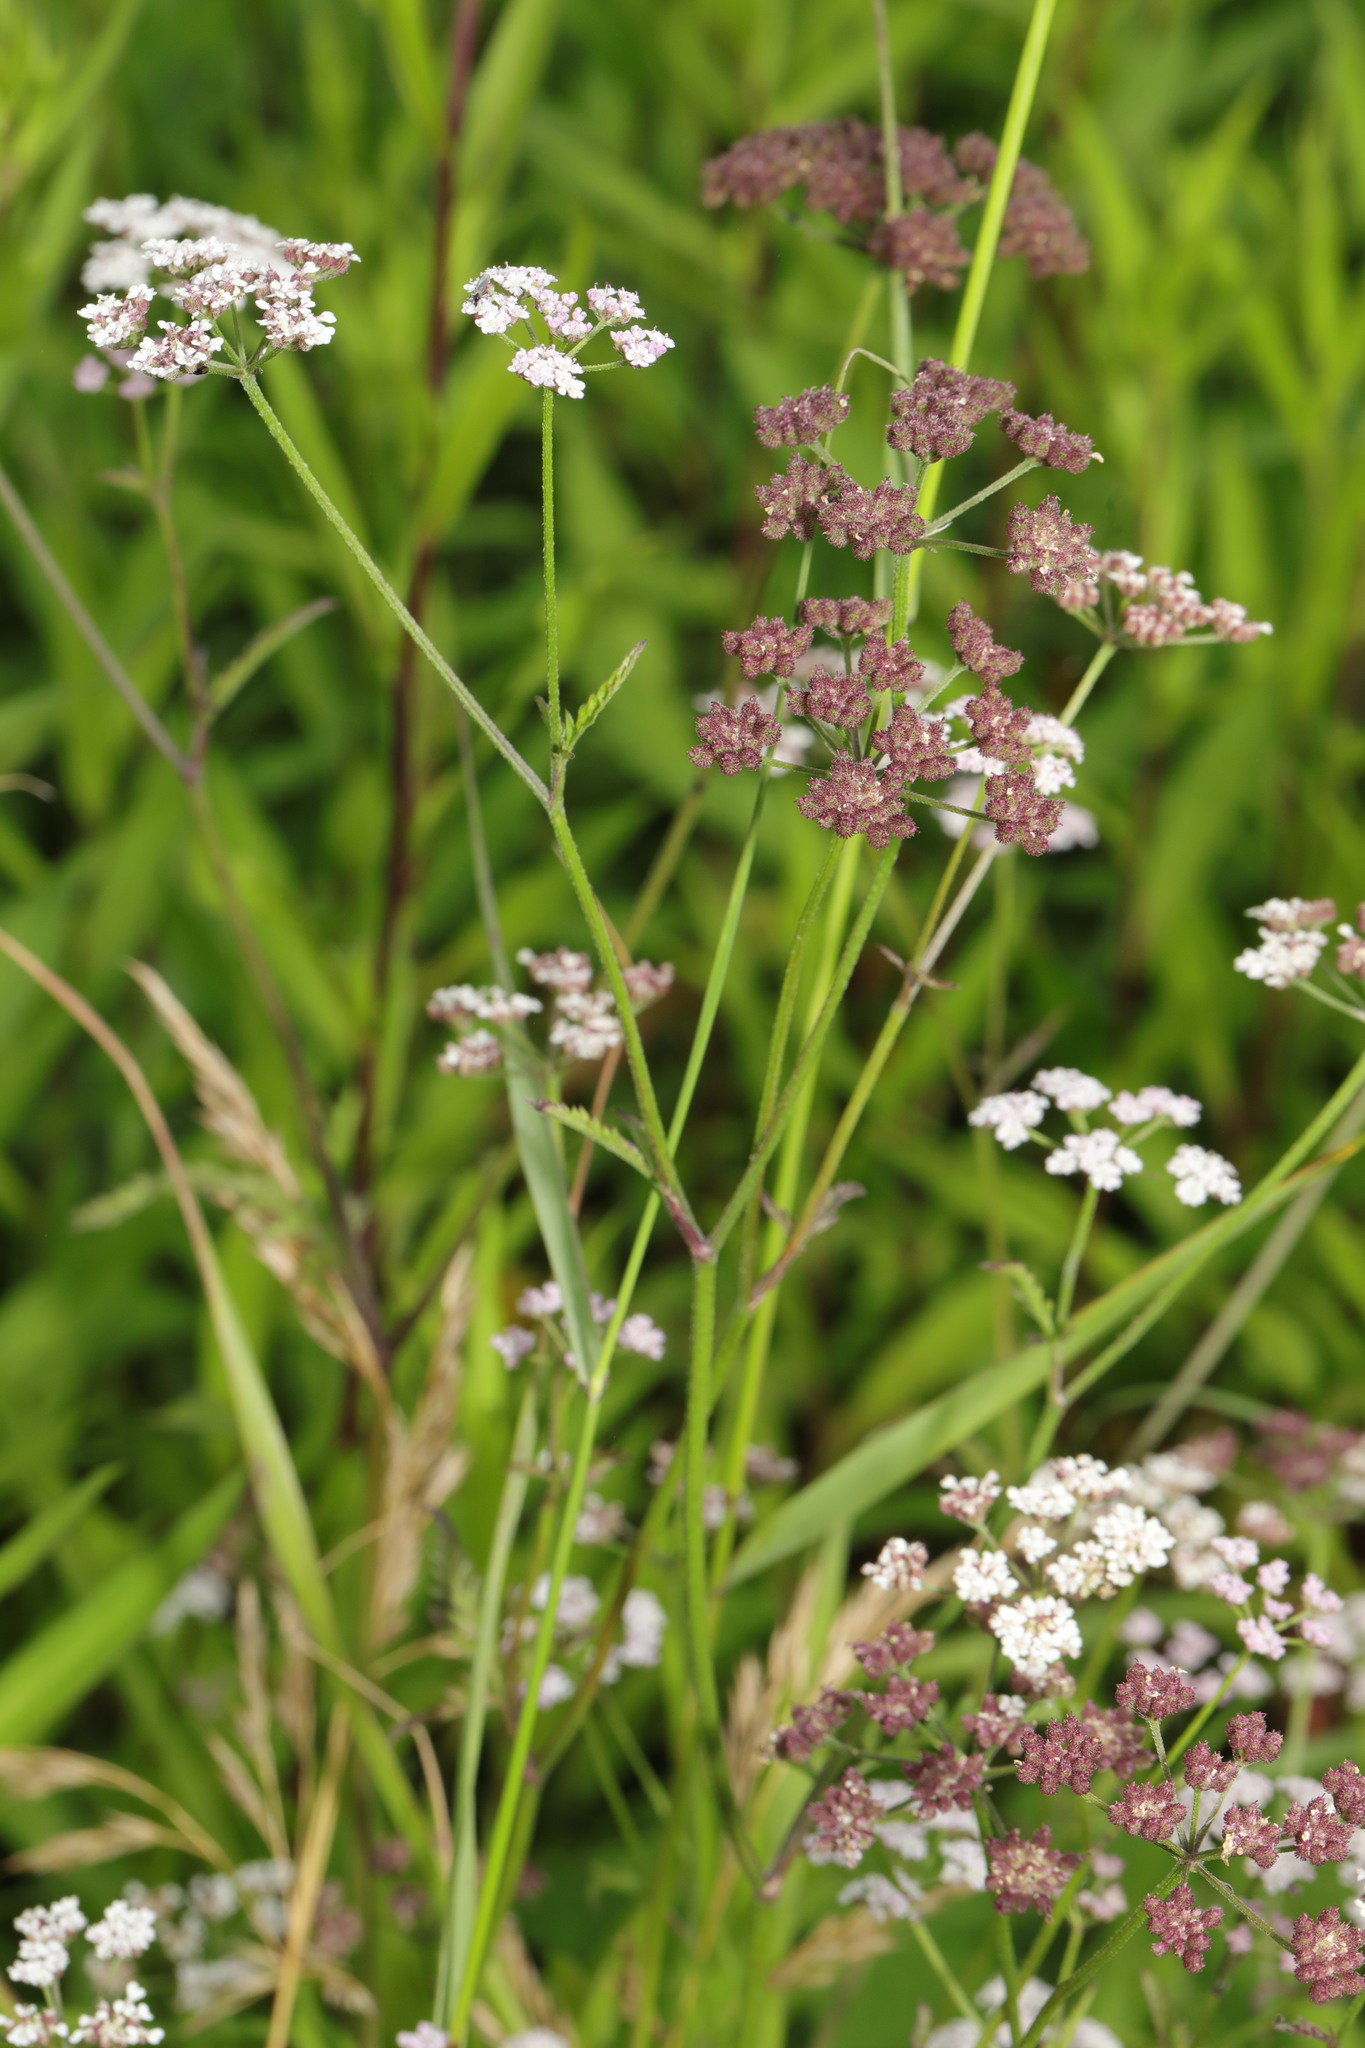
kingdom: Plantae
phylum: Tracheophyta
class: Magnoliopsida
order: Apiales
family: Apiaceae
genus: Torilis
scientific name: Torilis japonica
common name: Upright hedge-parsley
